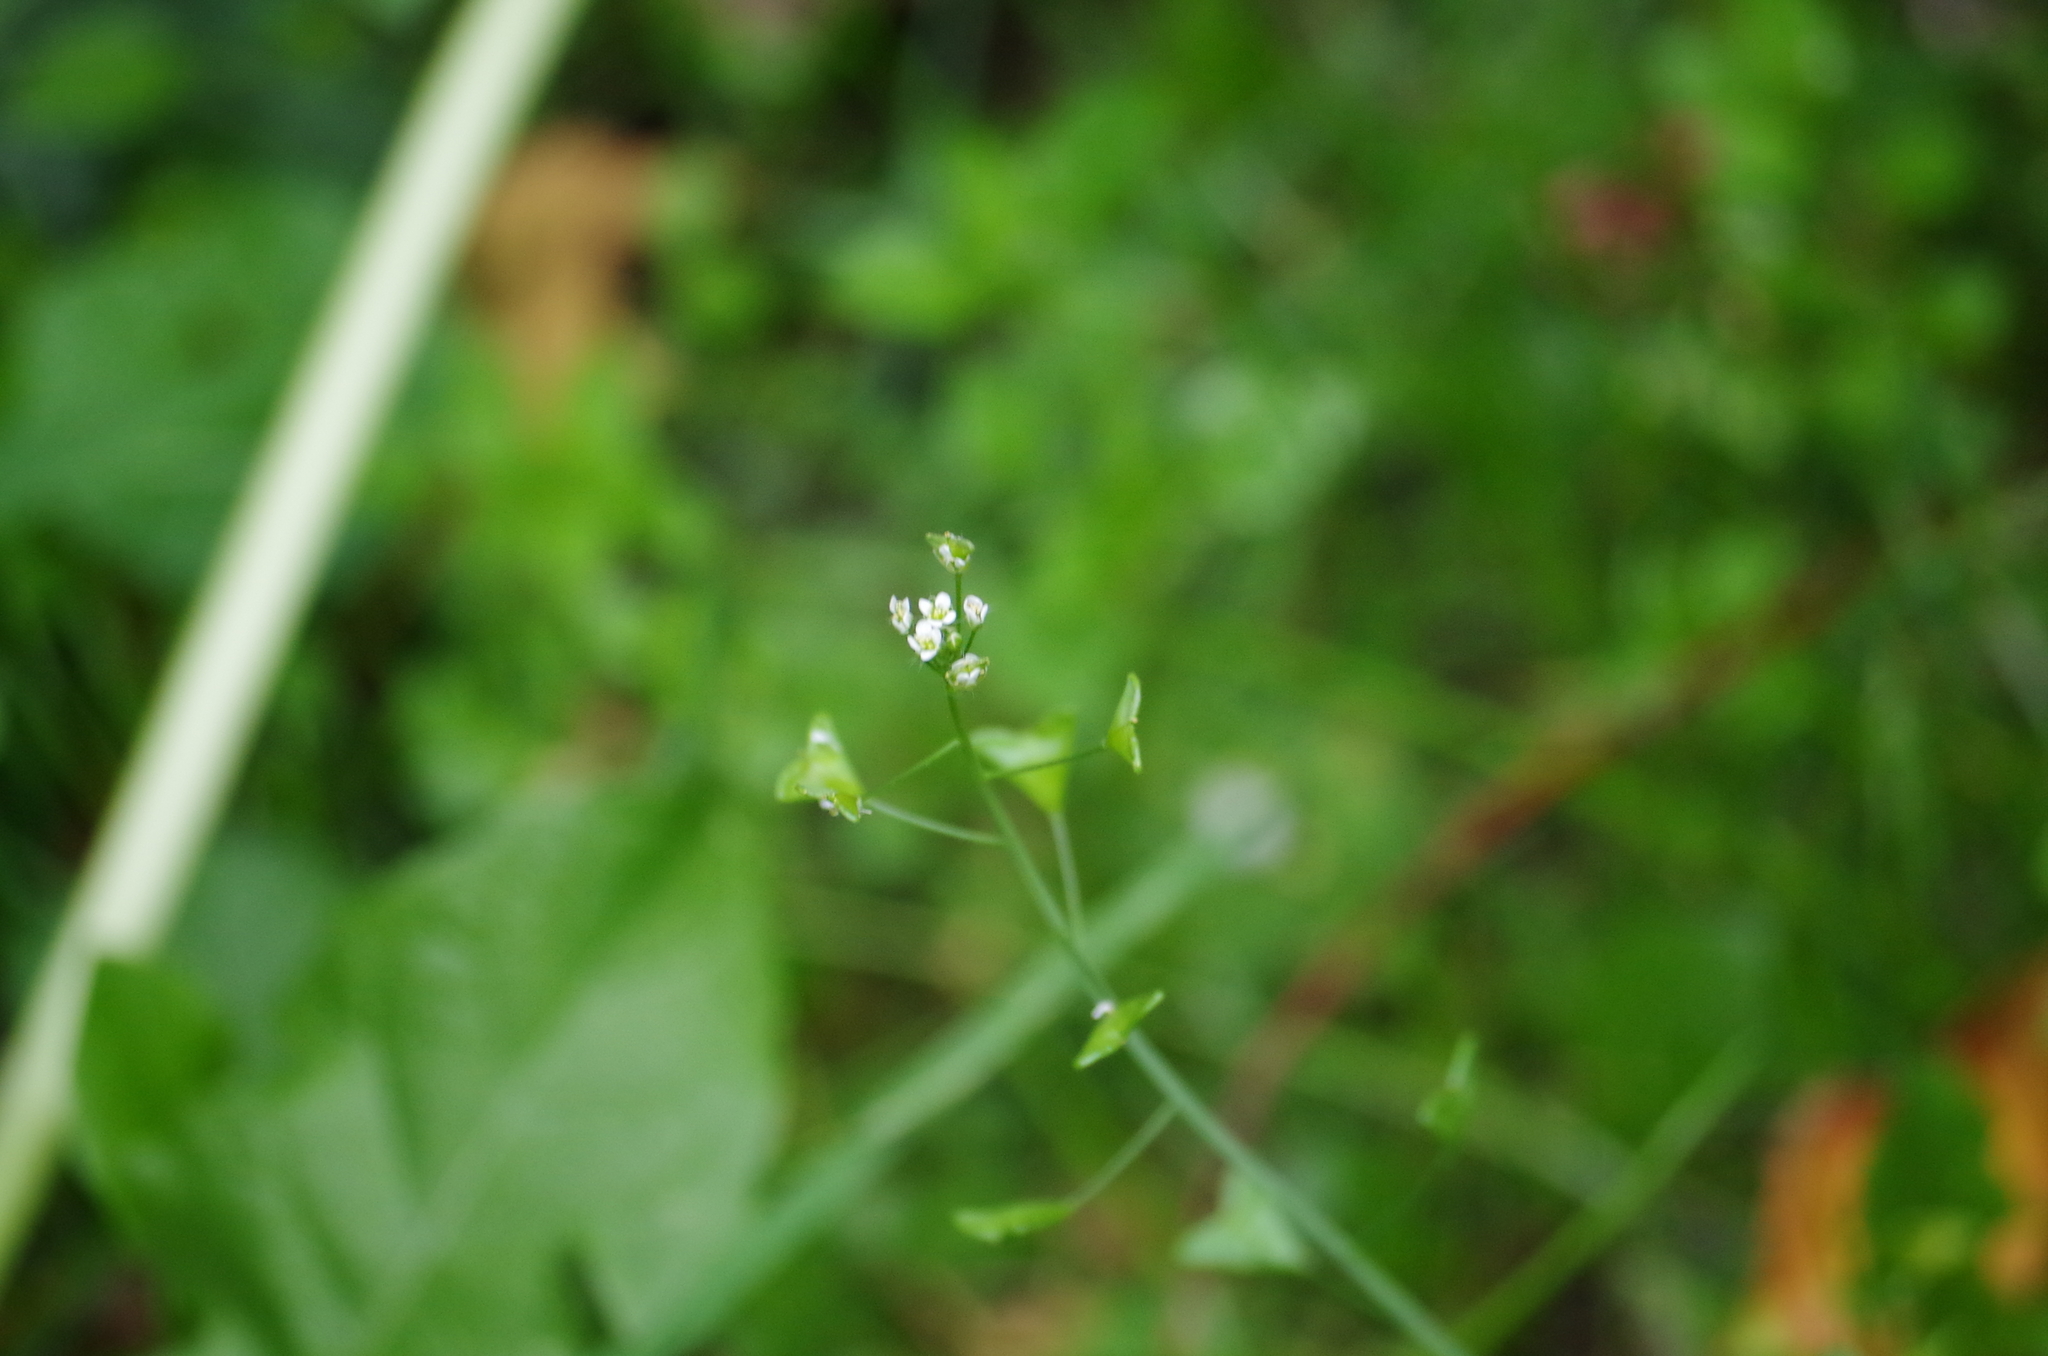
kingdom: Plantae
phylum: Tracheophyta
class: Magnoliopsida
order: Brassicales
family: Brassicaceae
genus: Capsella
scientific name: Capsella bursa-pastoris
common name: Shepherd's purse
